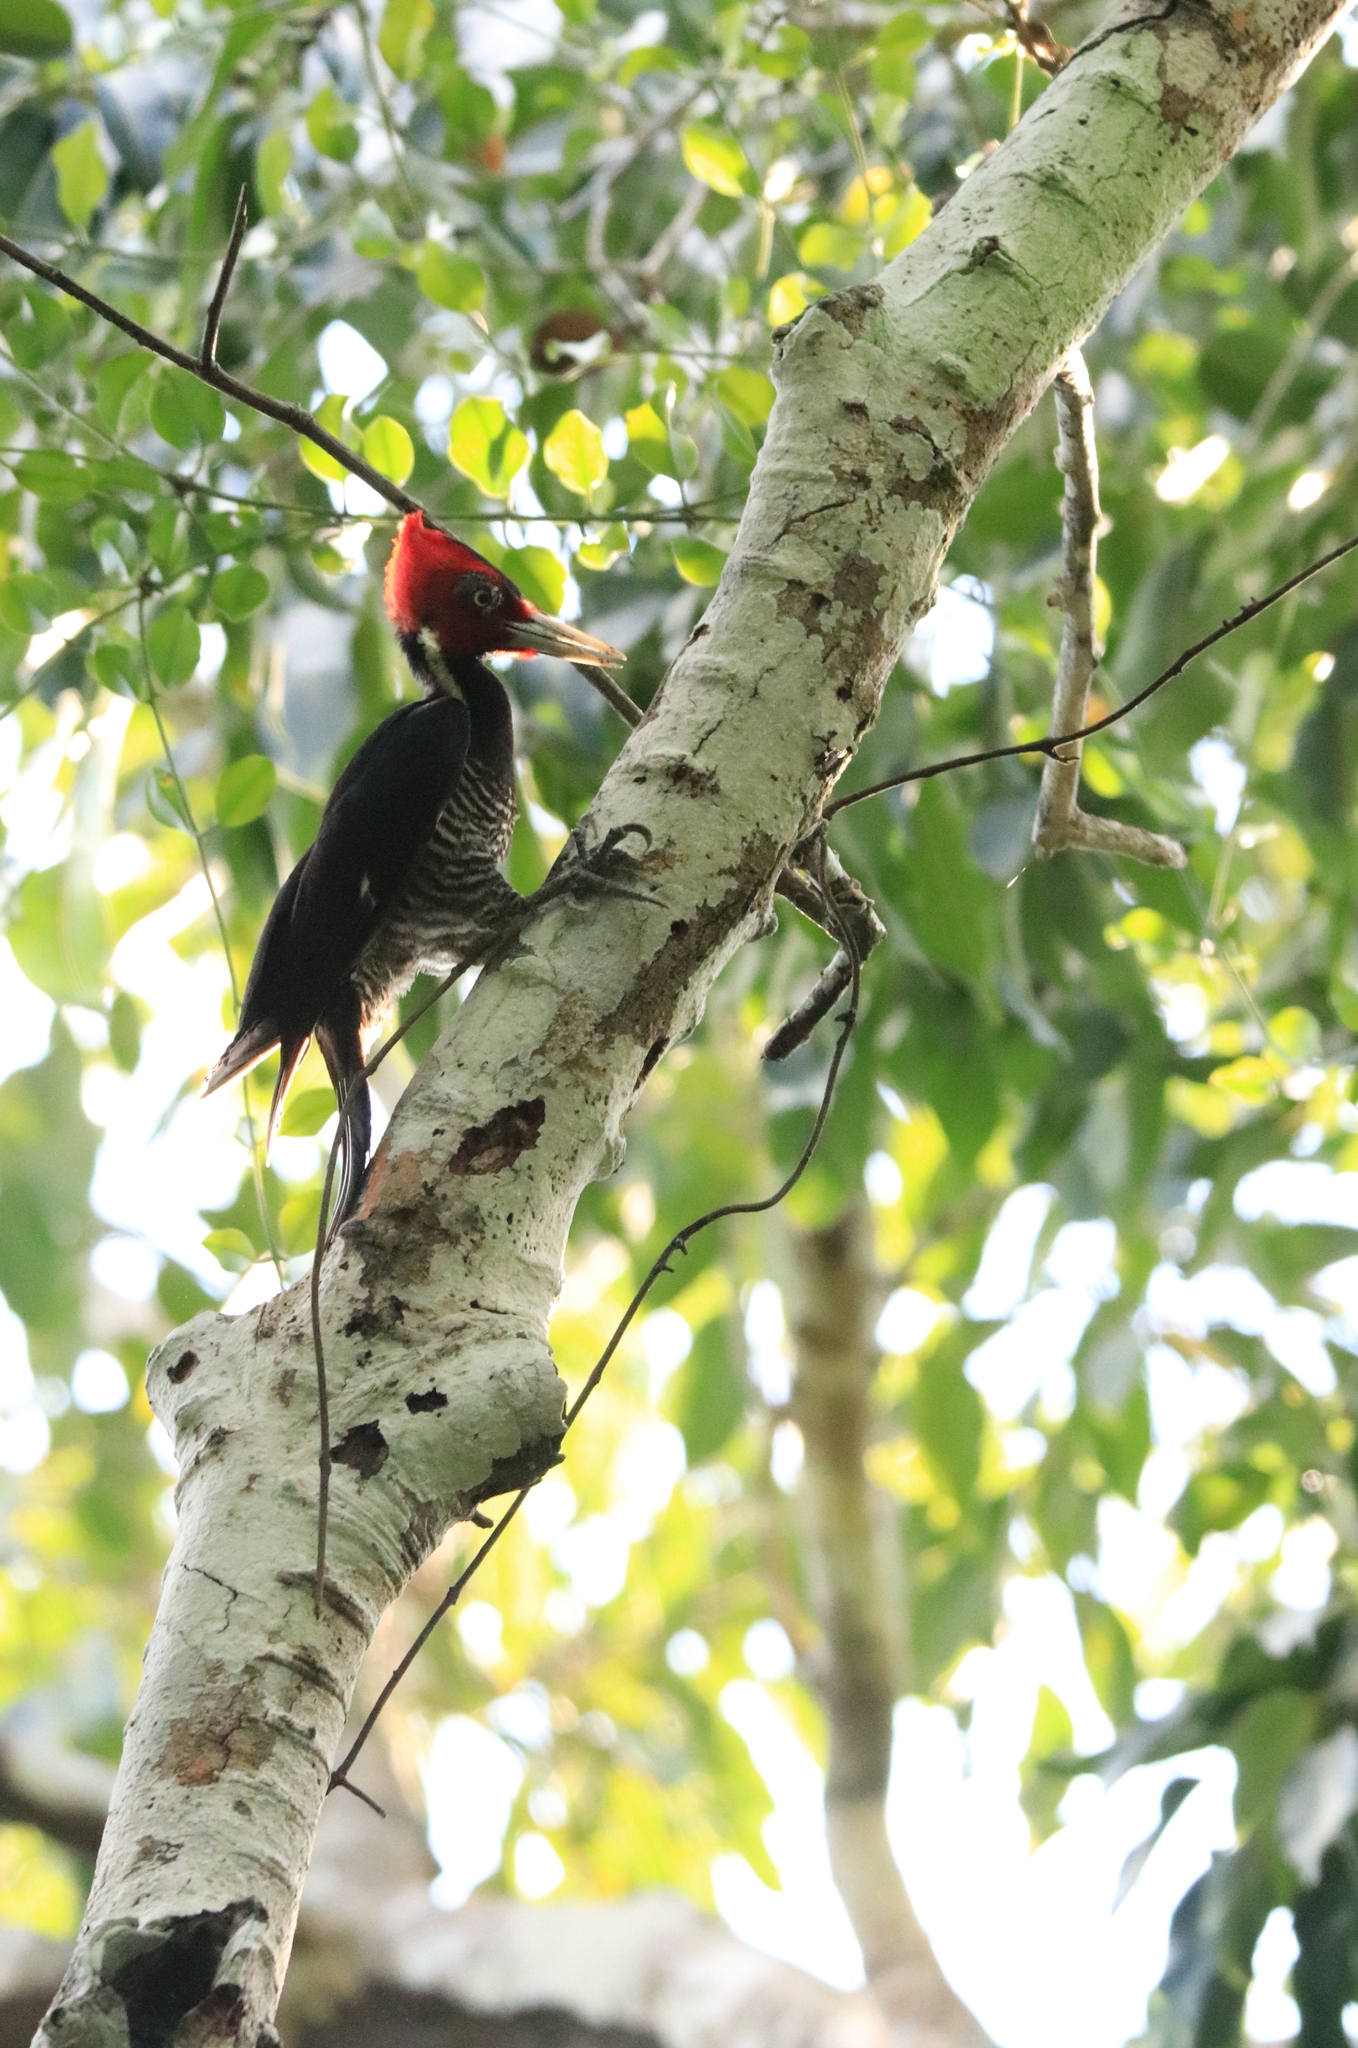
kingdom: Animalia
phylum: Chordata
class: Aves
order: Piciformes
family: Picidae
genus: Campephilus
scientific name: Campephilus guatemalensis
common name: Pale-billed woodpecker
